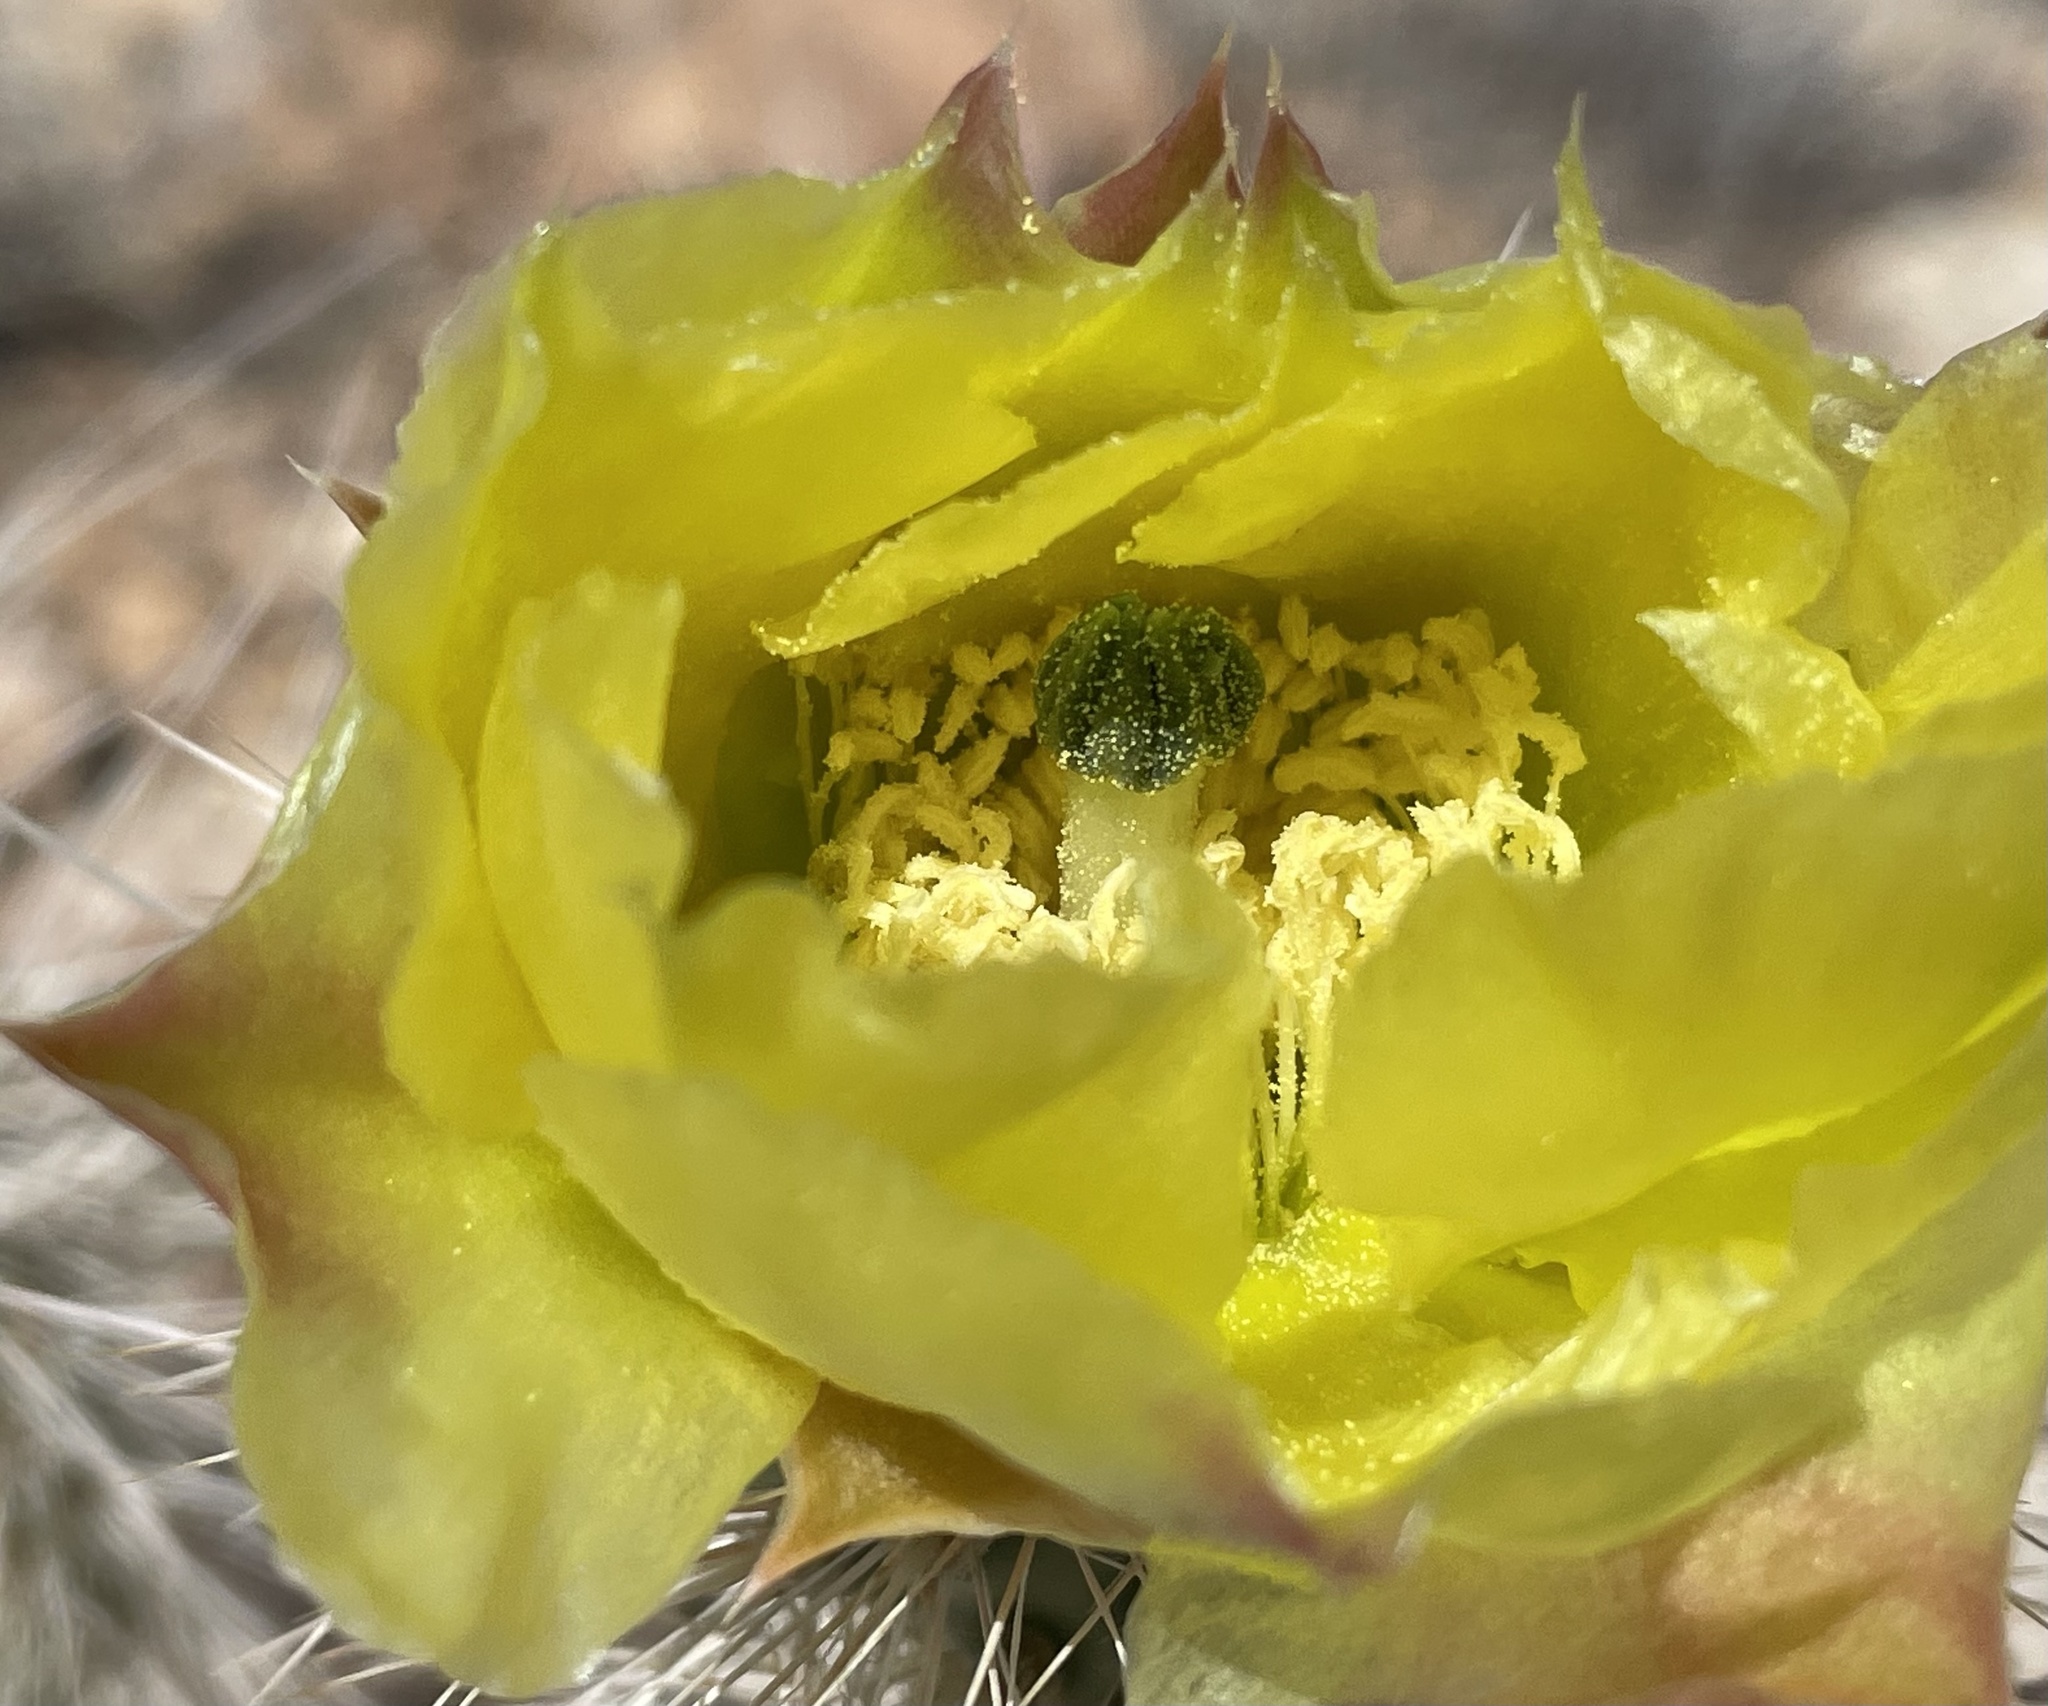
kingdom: Plantae
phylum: Tracheophyta
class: Magnoliopsida
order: Caryophyllales
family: Cactaceae
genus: Opuntia
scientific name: Opuntia polyacantha
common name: Plains prickly-pear
